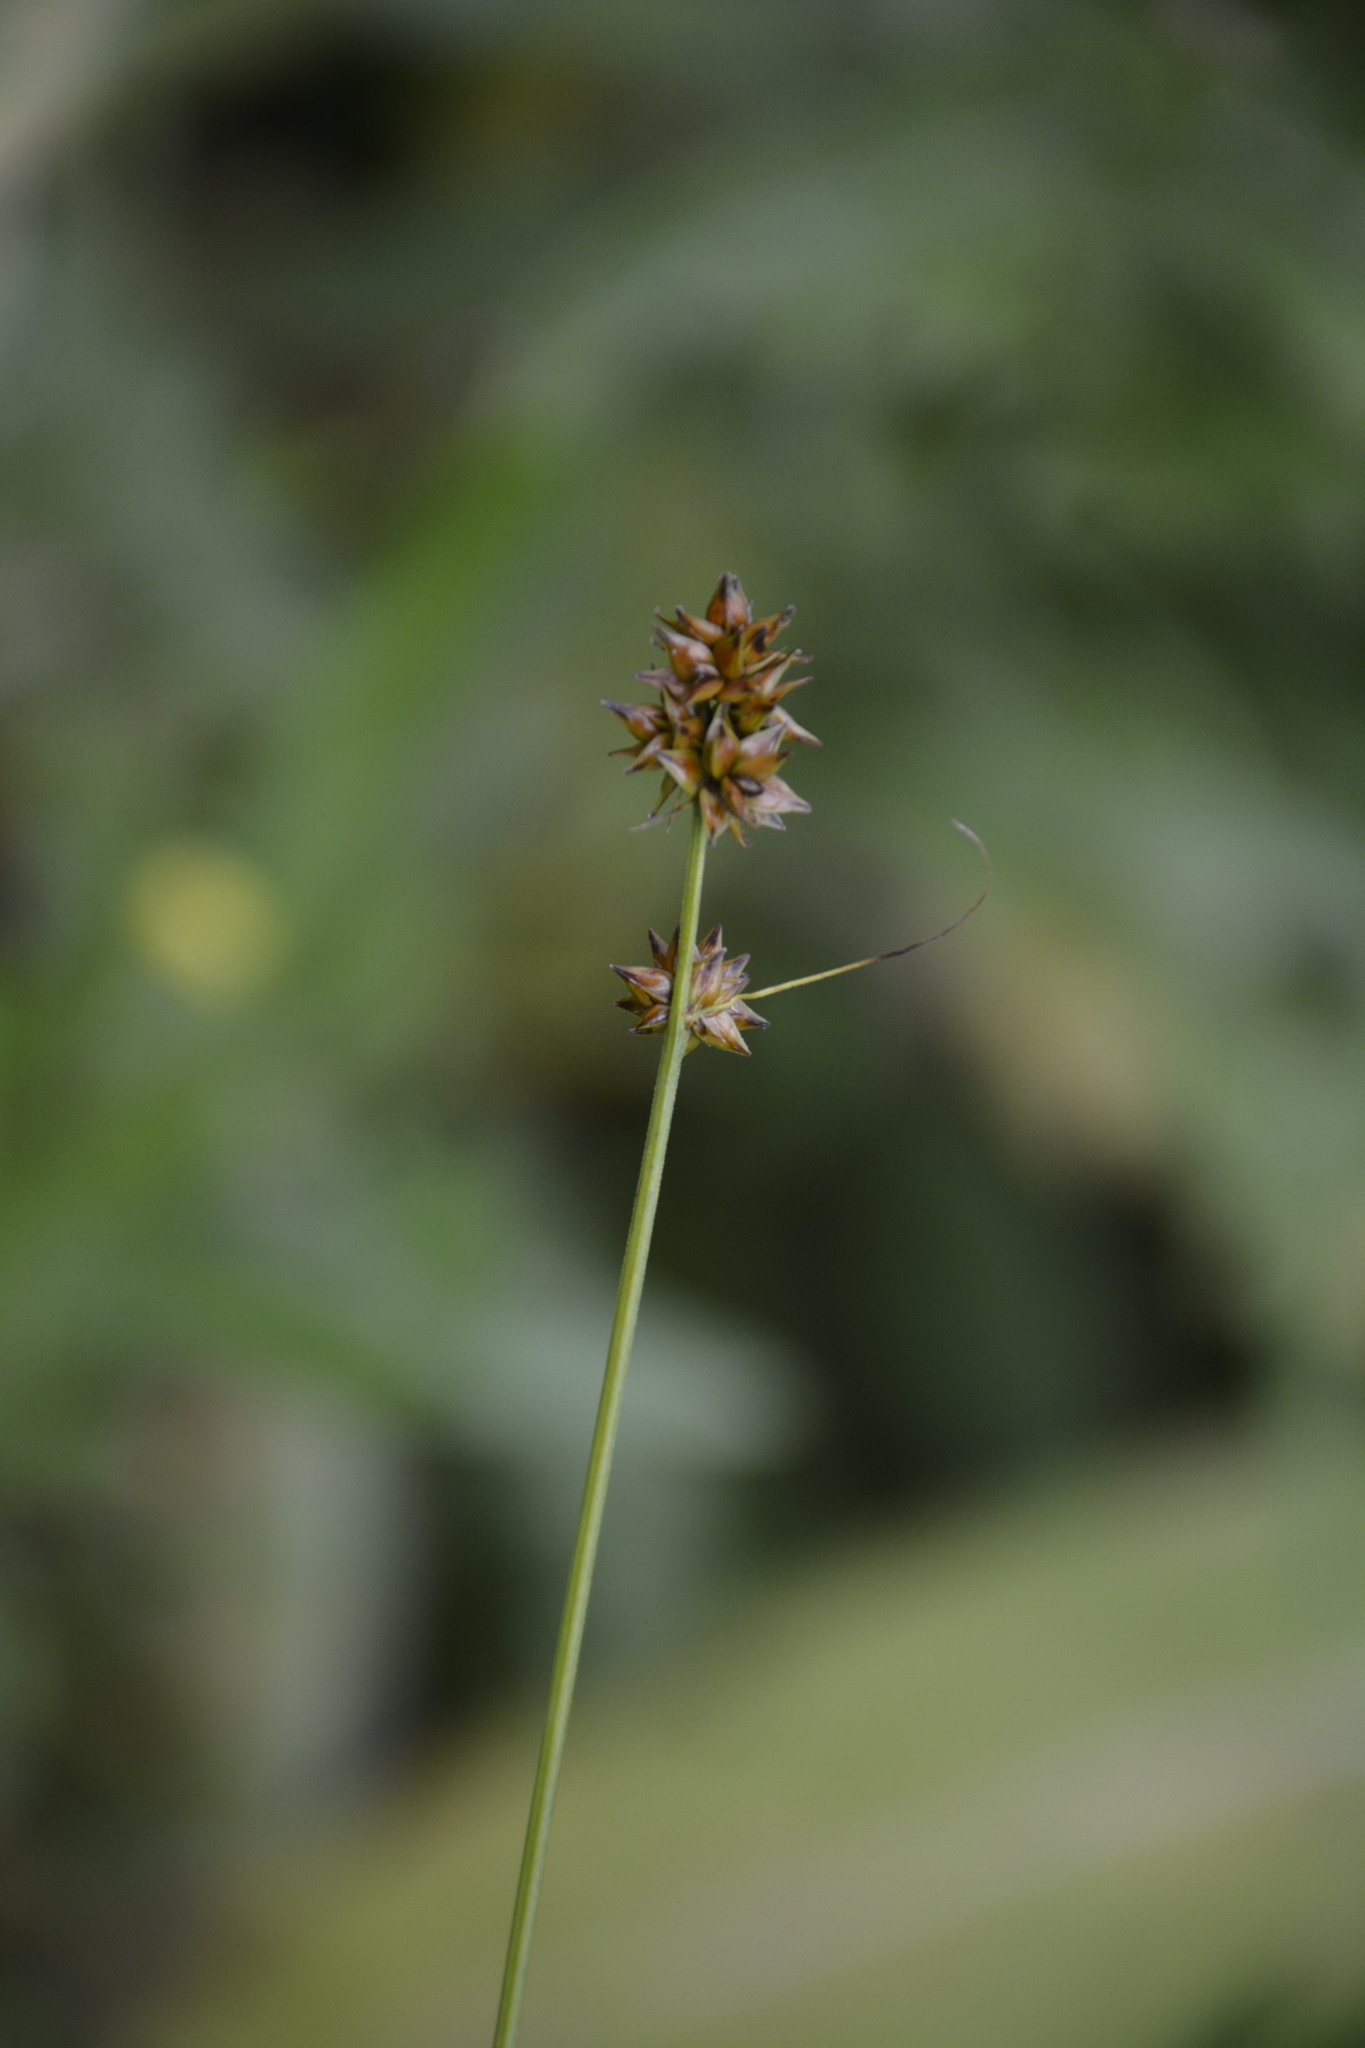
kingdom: Plantae
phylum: Tracheophyta
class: Liliopsida
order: Poales
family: Cyperaceae
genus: Carex
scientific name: Carex muricata
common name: Rough sedge
